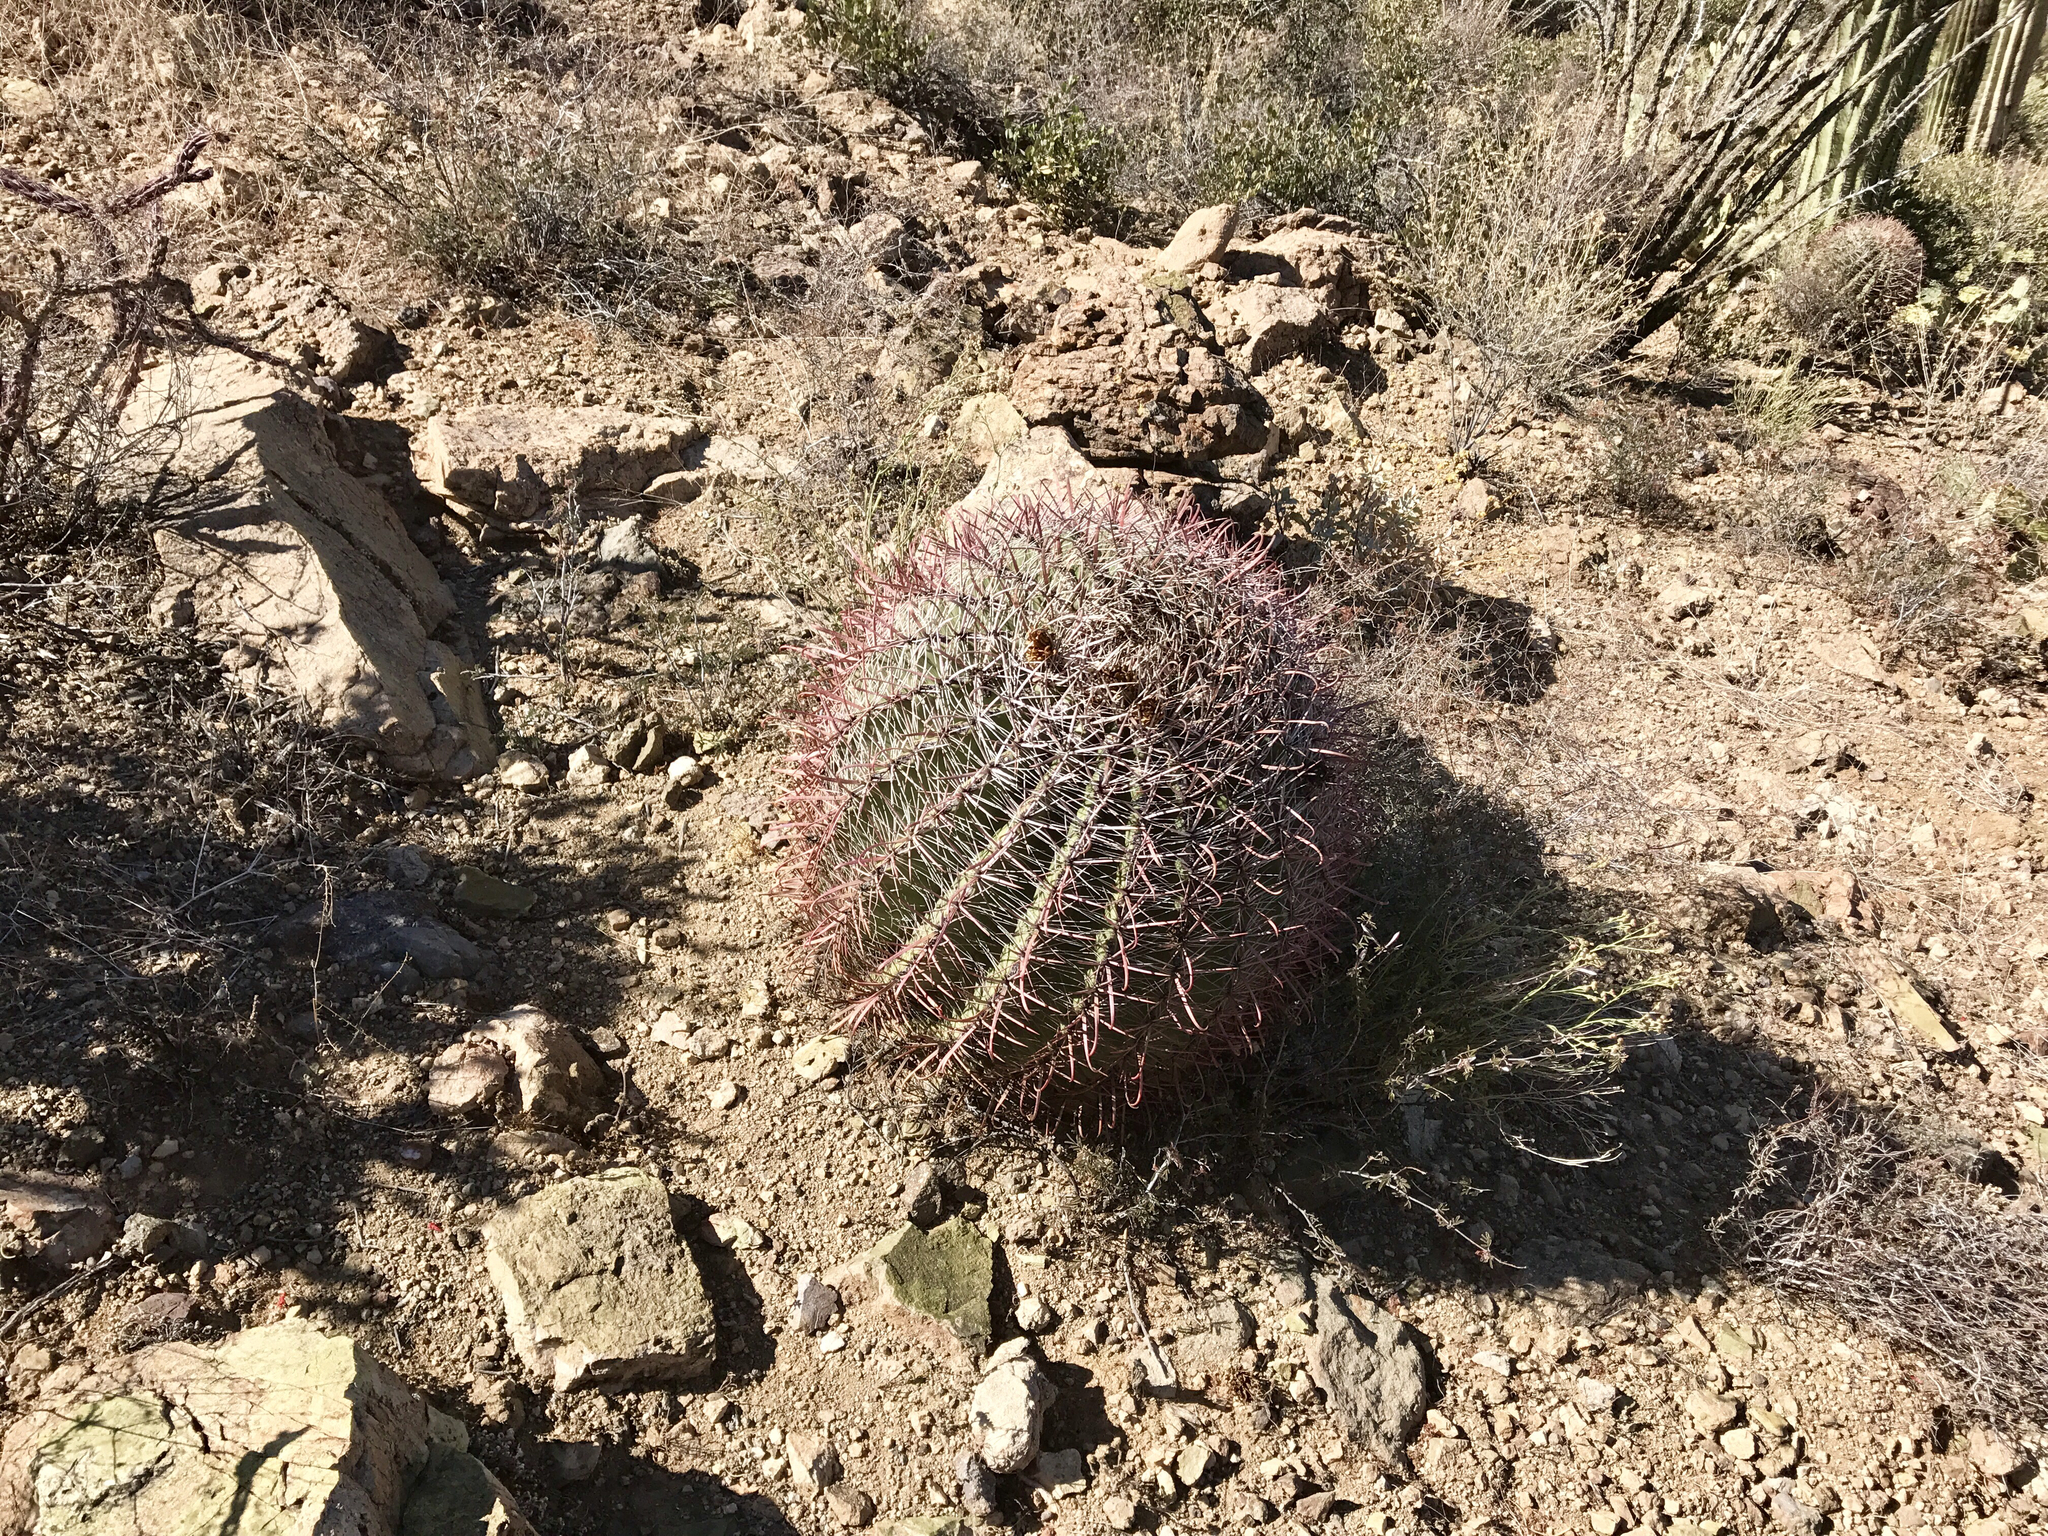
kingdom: Plantae
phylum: Tracheophyta
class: Magnoliopsida
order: Caryophyllales
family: Cactaceae
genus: Ferocactus
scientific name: Ferocactus wislizeni
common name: Candy barrel cactus
